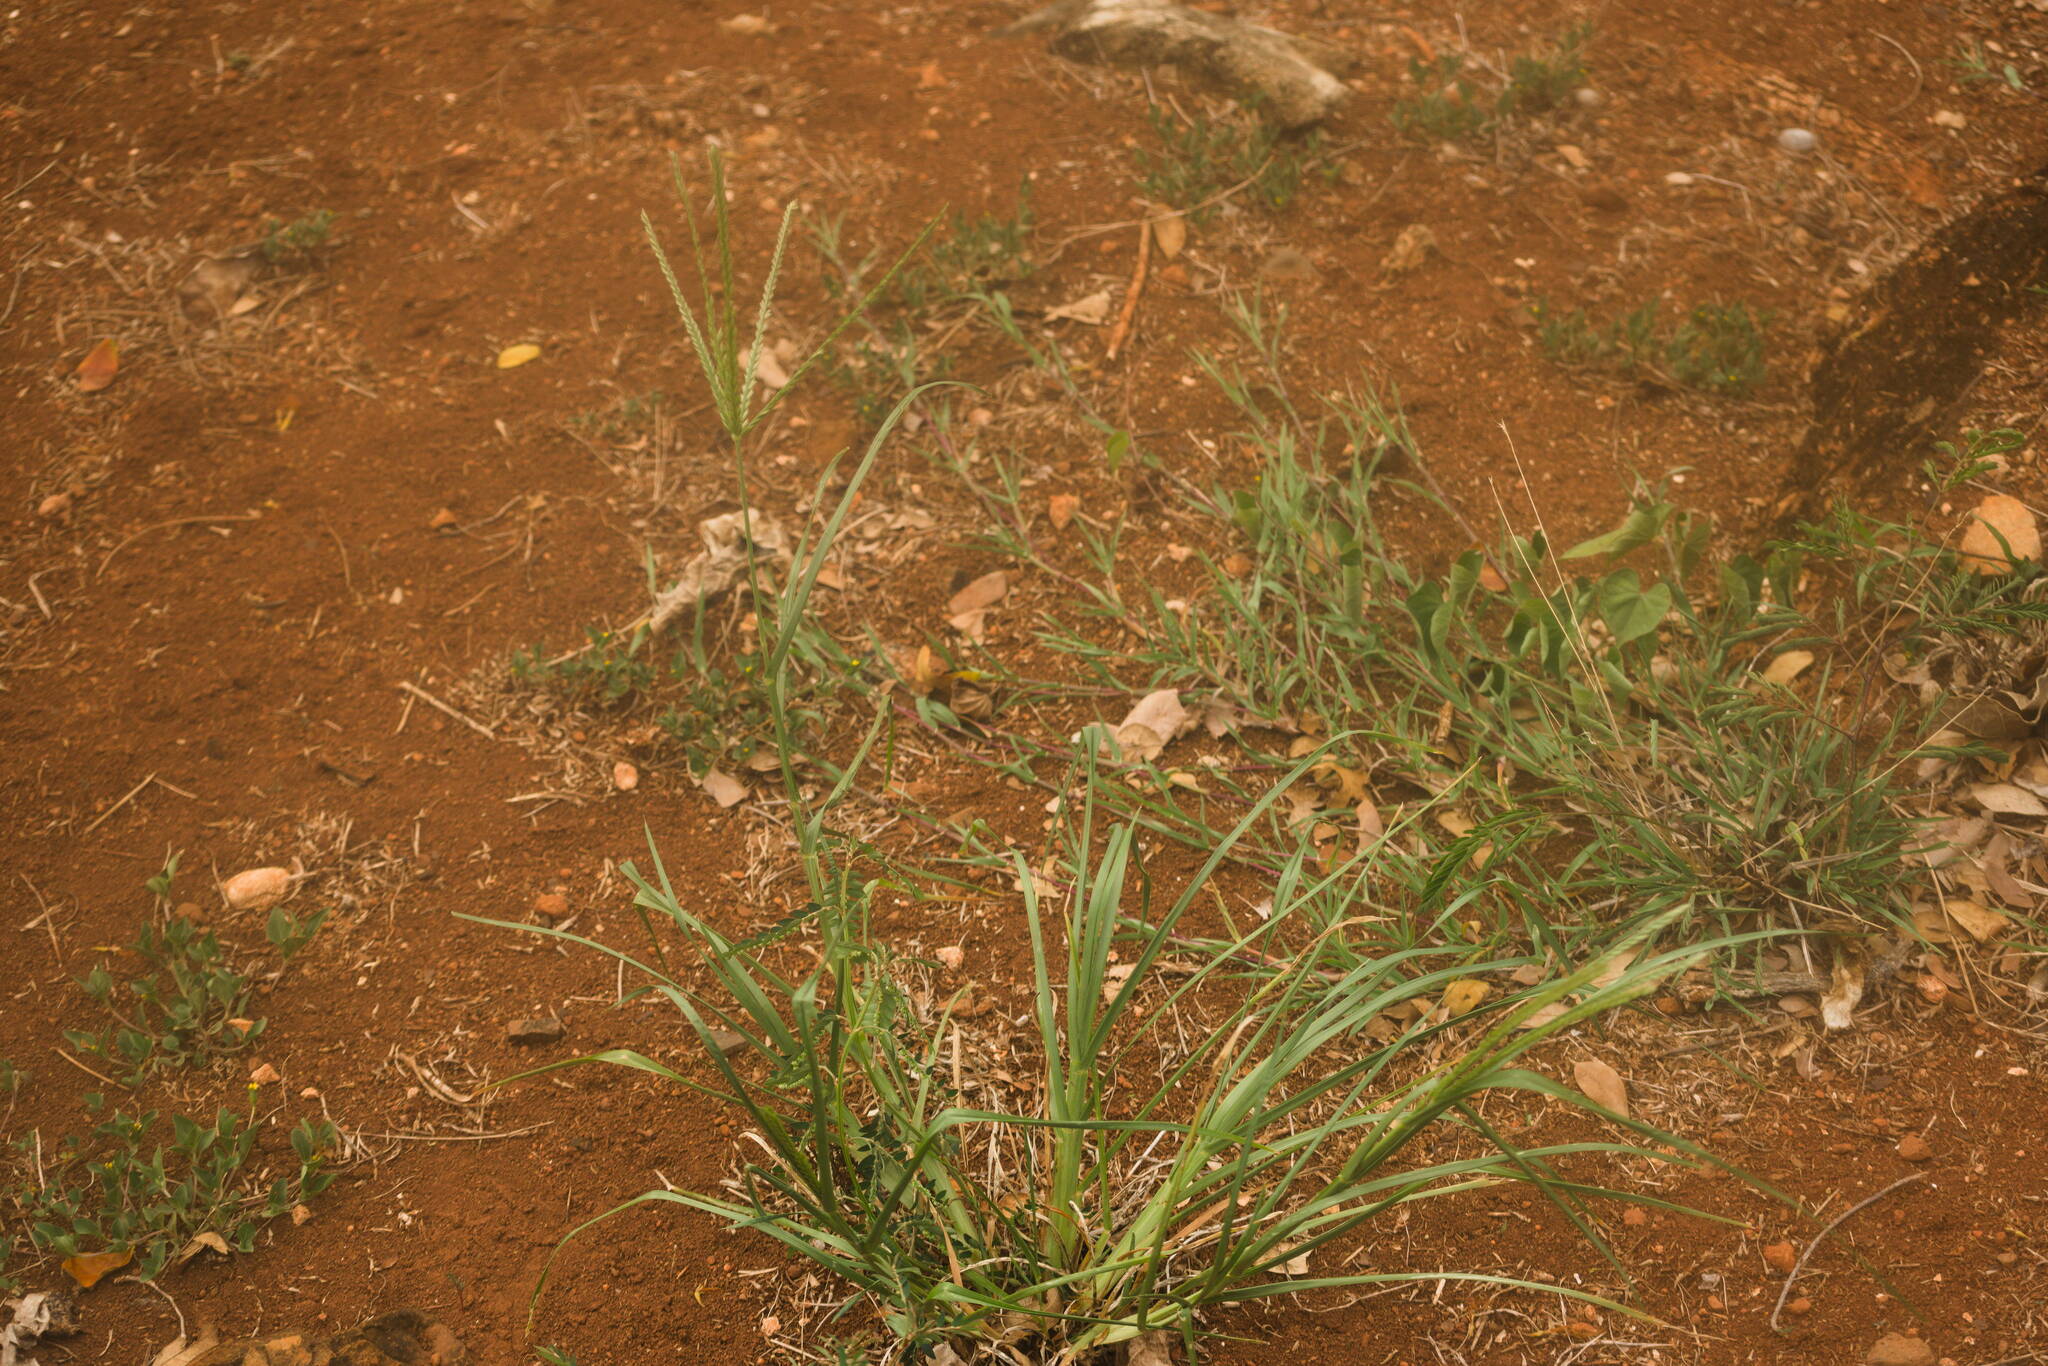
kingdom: Plantae
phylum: Tracheophyta
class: Liliopsida
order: Poales
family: Poaceae
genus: Eleusine
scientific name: Eleusine indica
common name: Yard-grass
